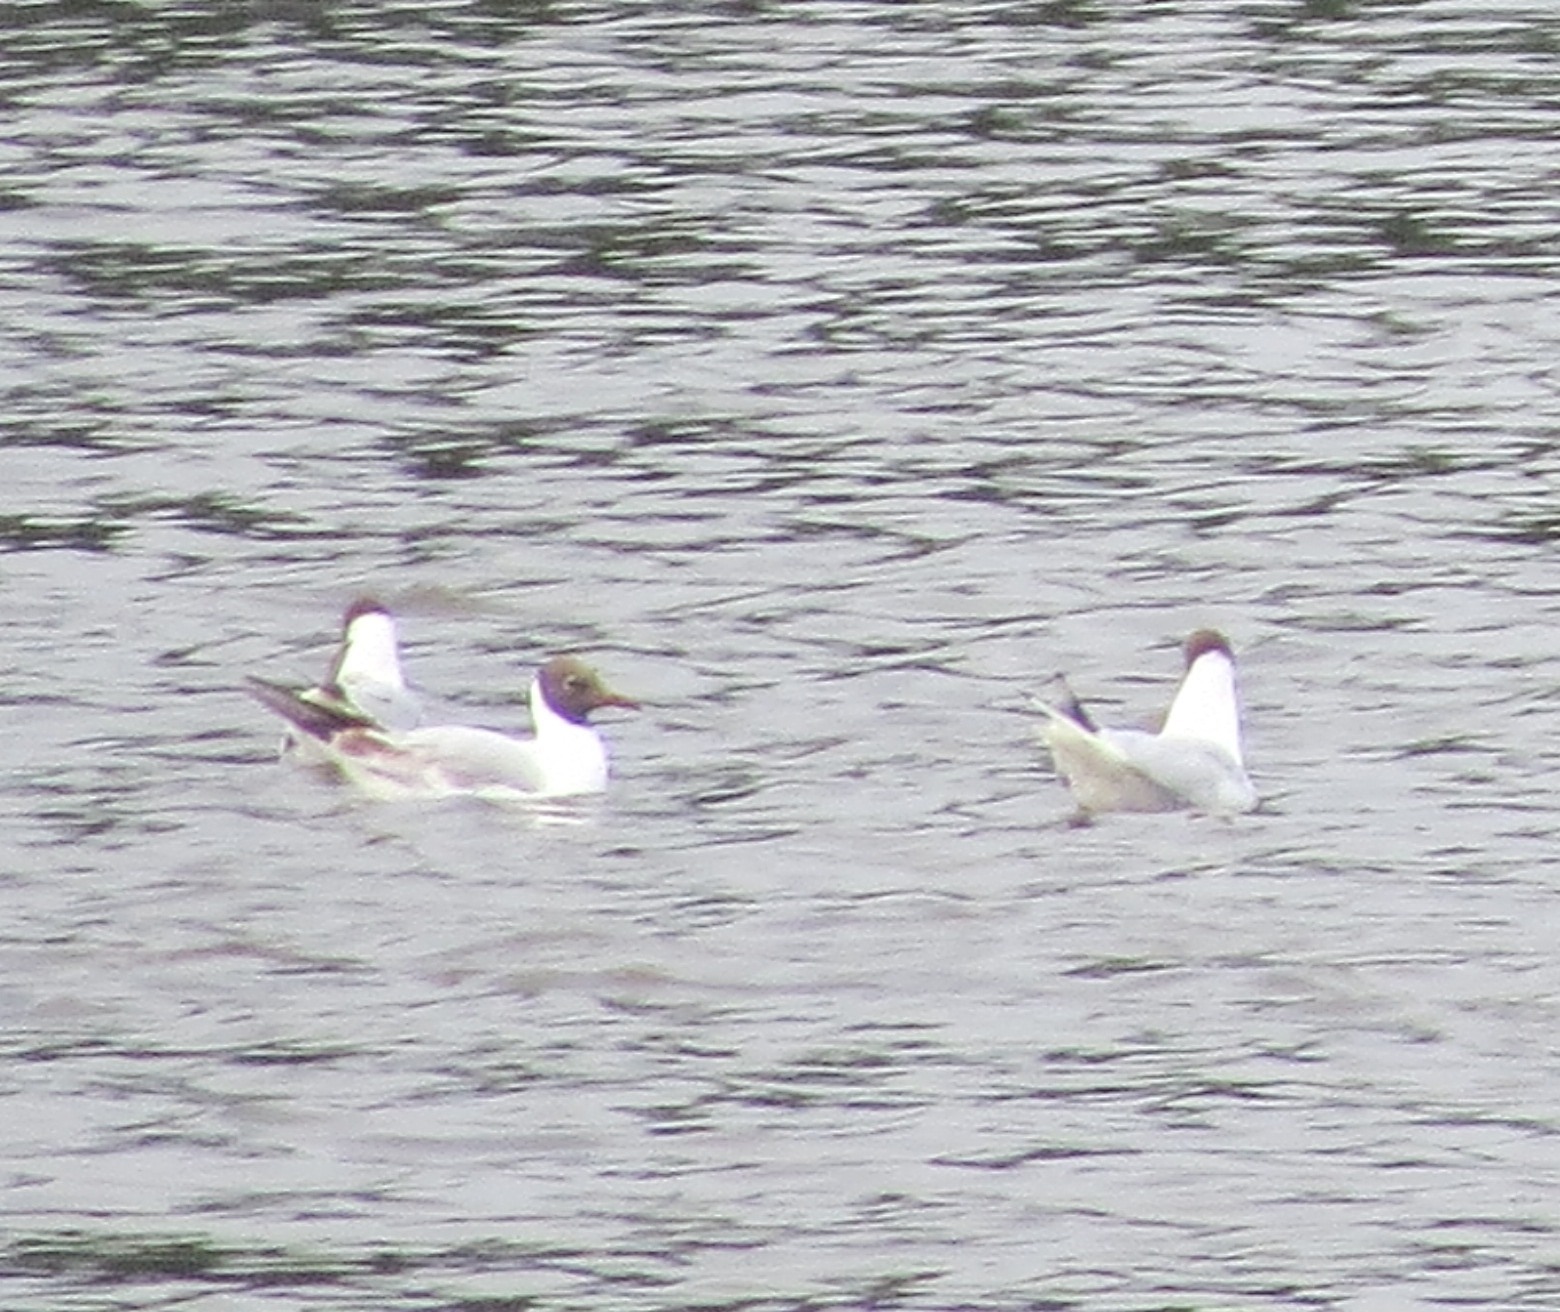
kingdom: Animalia
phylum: Chordata
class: Aves
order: Charadriiformes
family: Laridae
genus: Chroicocephalus
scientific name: Chroicocephalus ridibundus
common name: Black-headed gull
